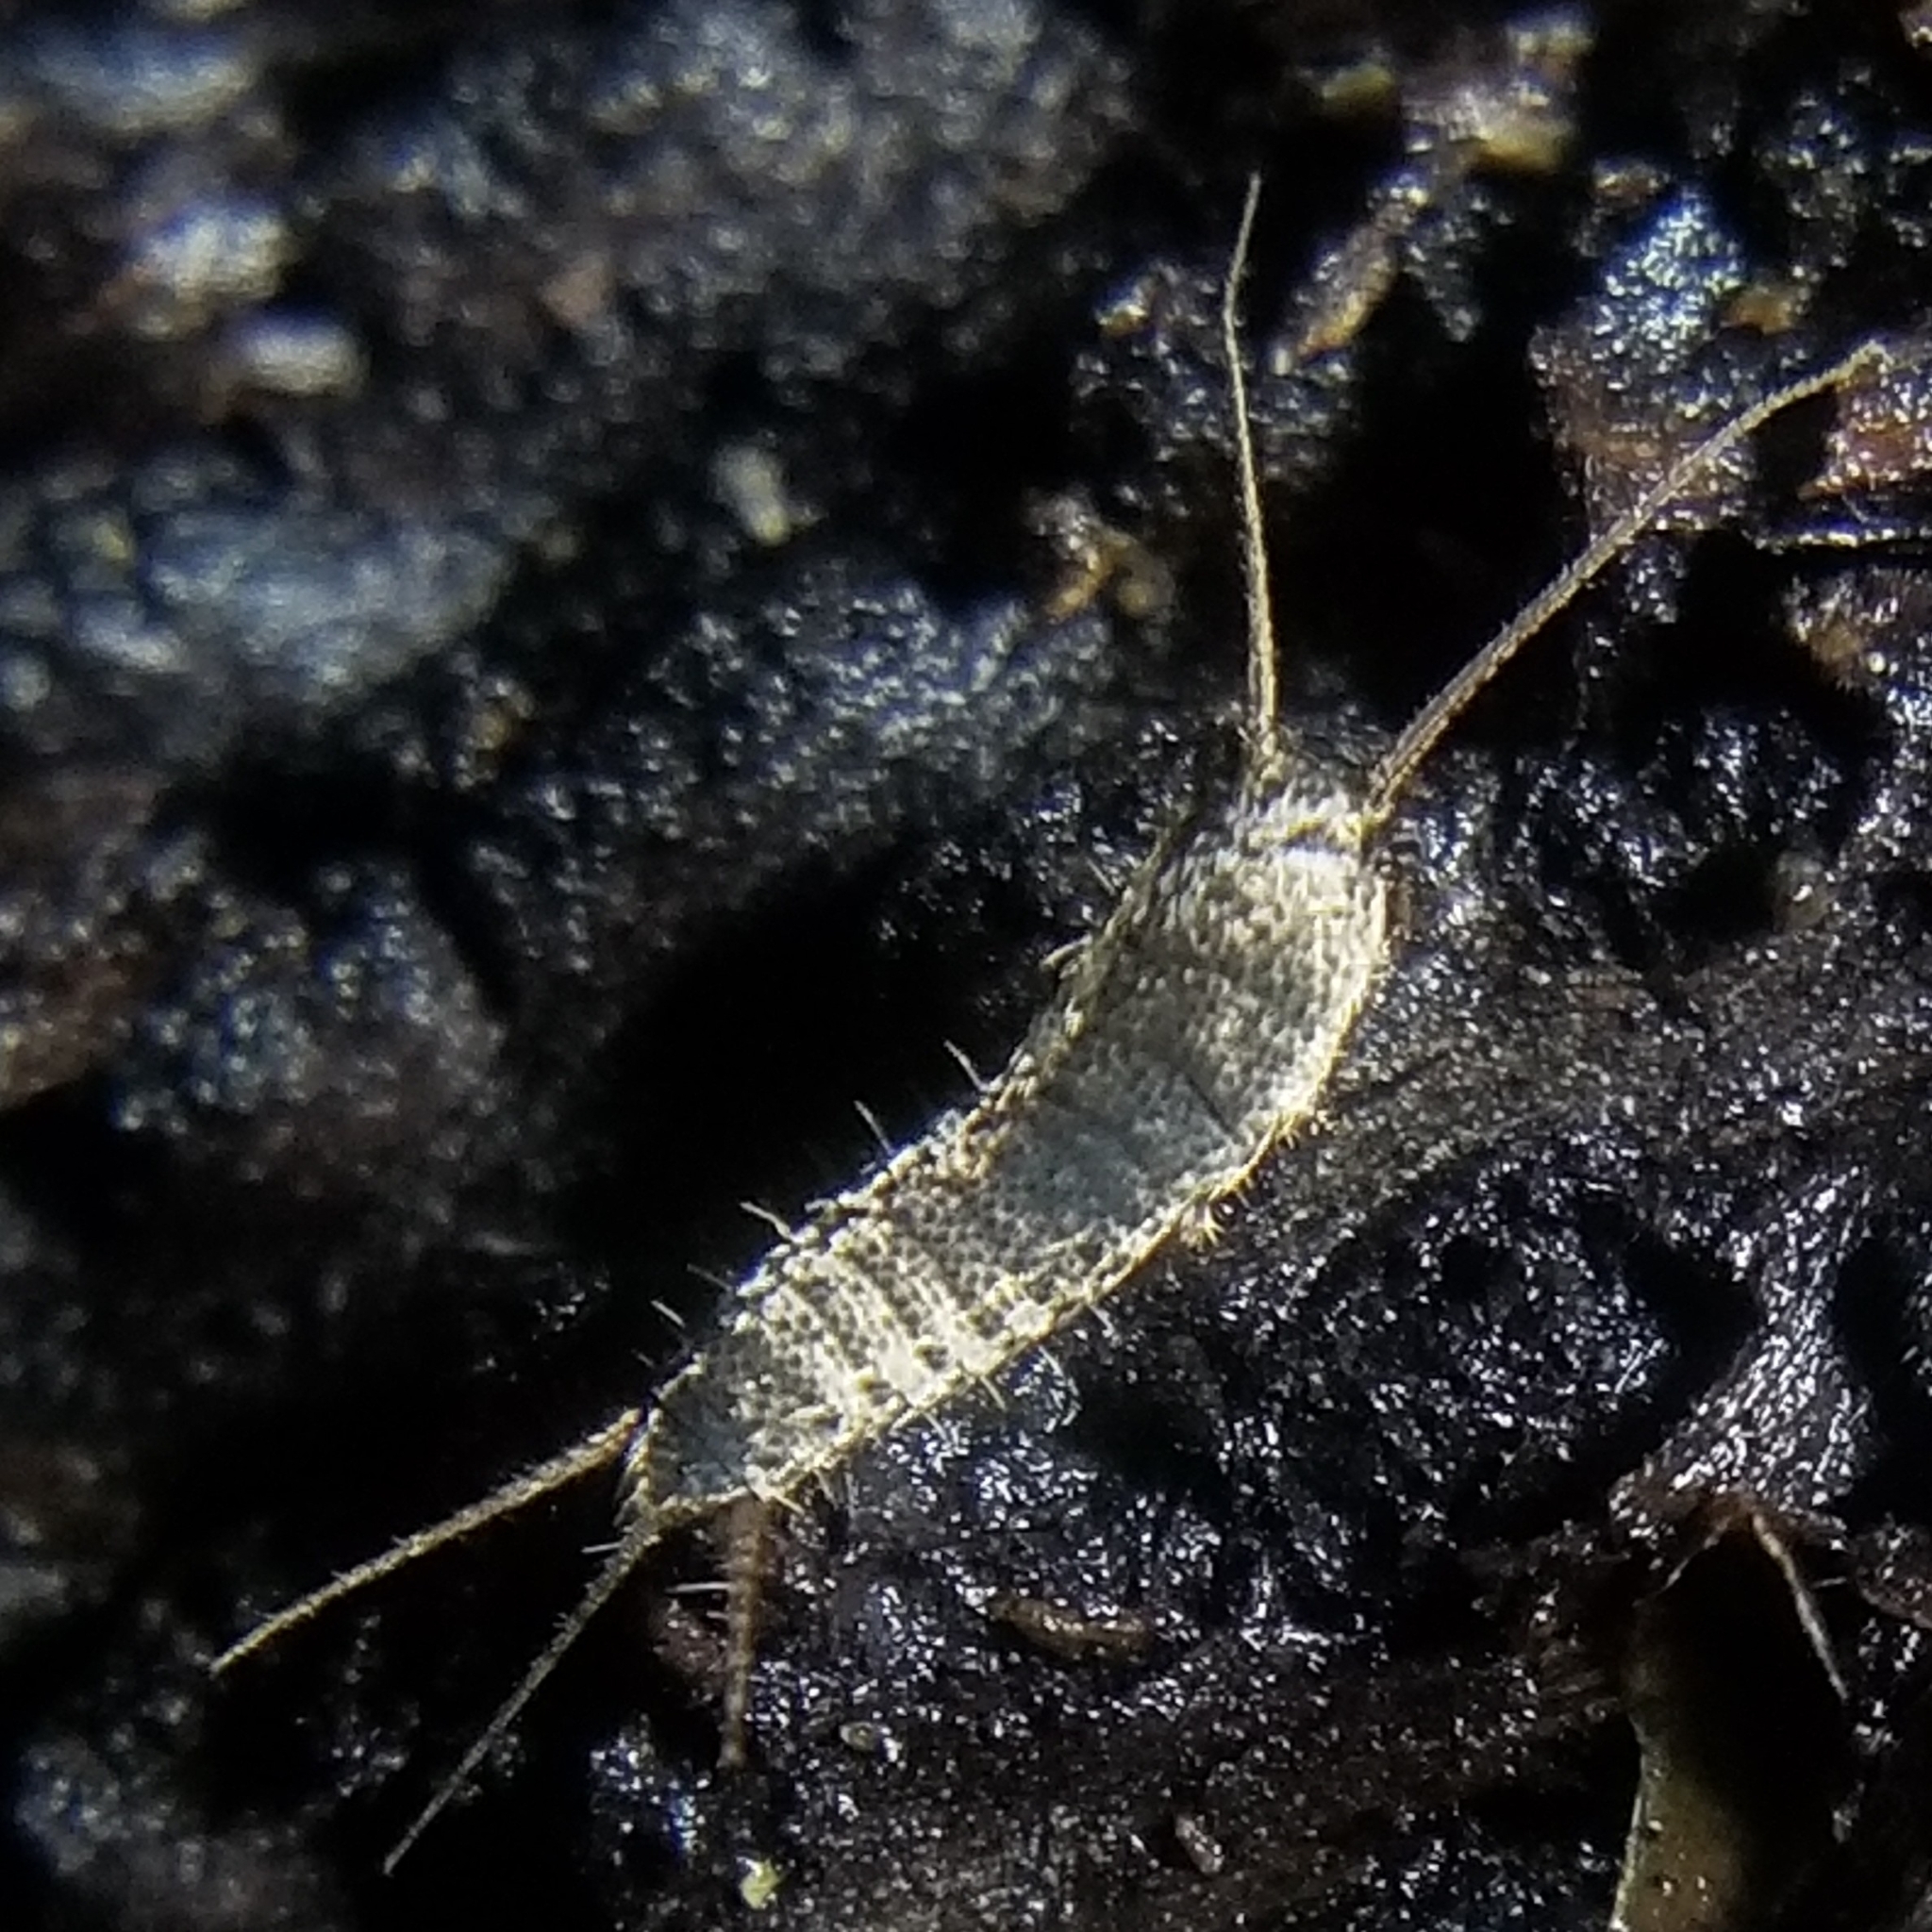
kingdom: Animalia
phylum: Arthropoda
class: Insecta
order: Zygentoma
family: Lepismatidae
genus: Allacrotelsa
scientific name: Allacrotelsa spinulata
